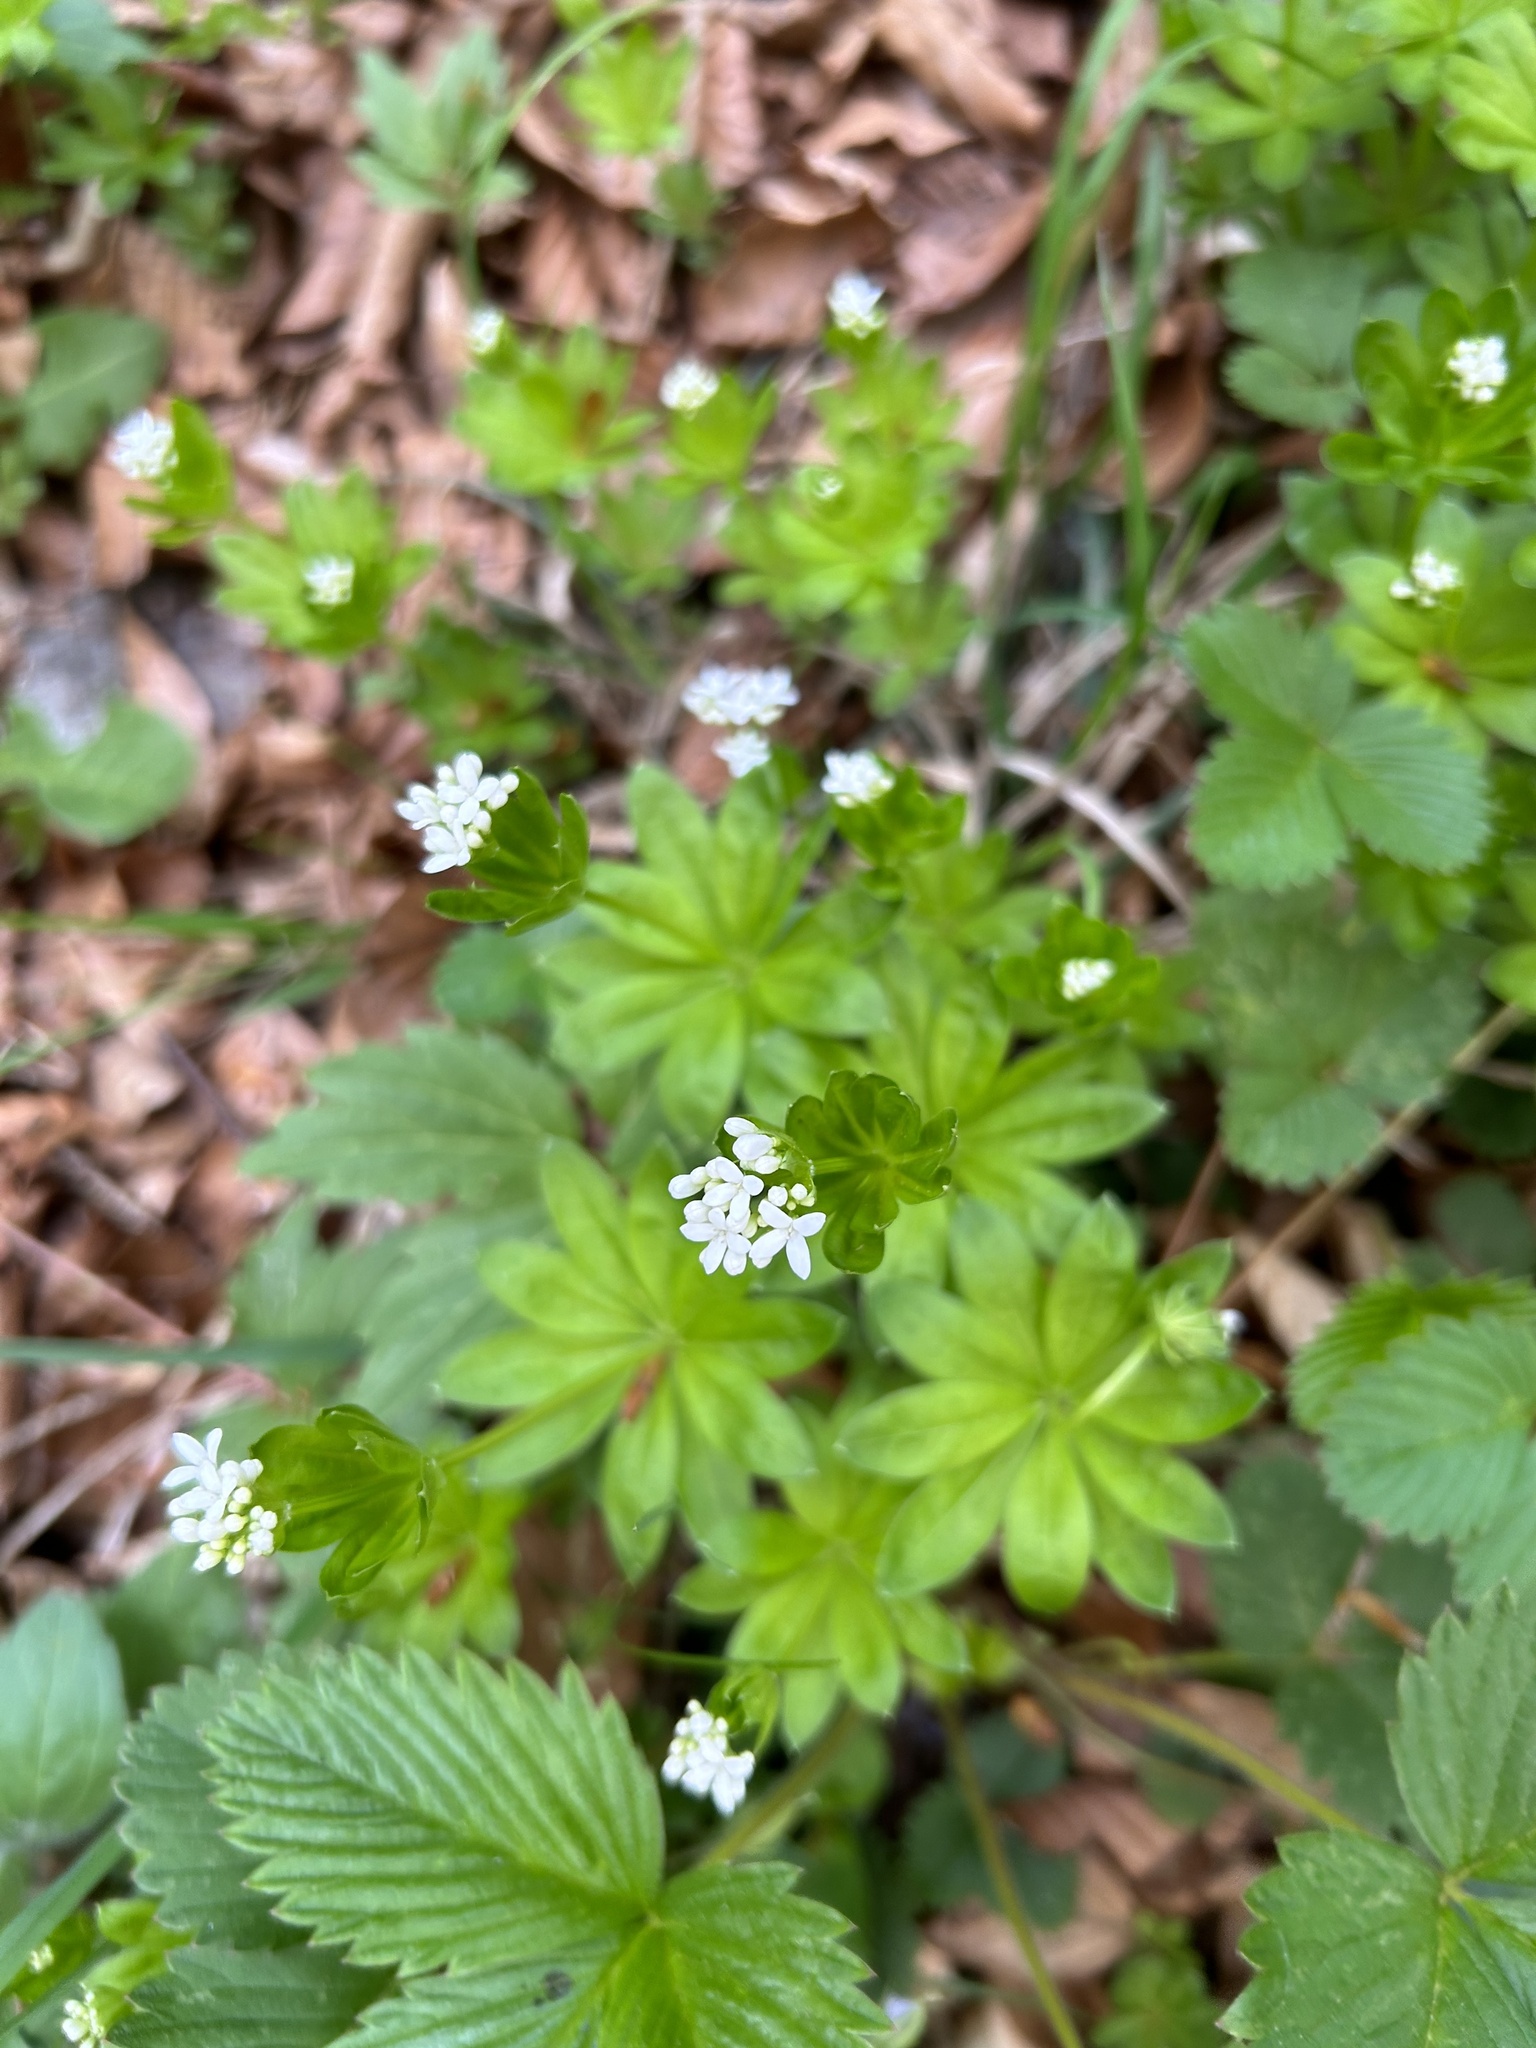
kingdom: Plantae
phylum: Tracheophyta
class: Magnoliopsida
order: Gentianales
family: Rubiaceae
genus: Galium
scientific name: Galium odoratum
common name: Sweet woodruff
